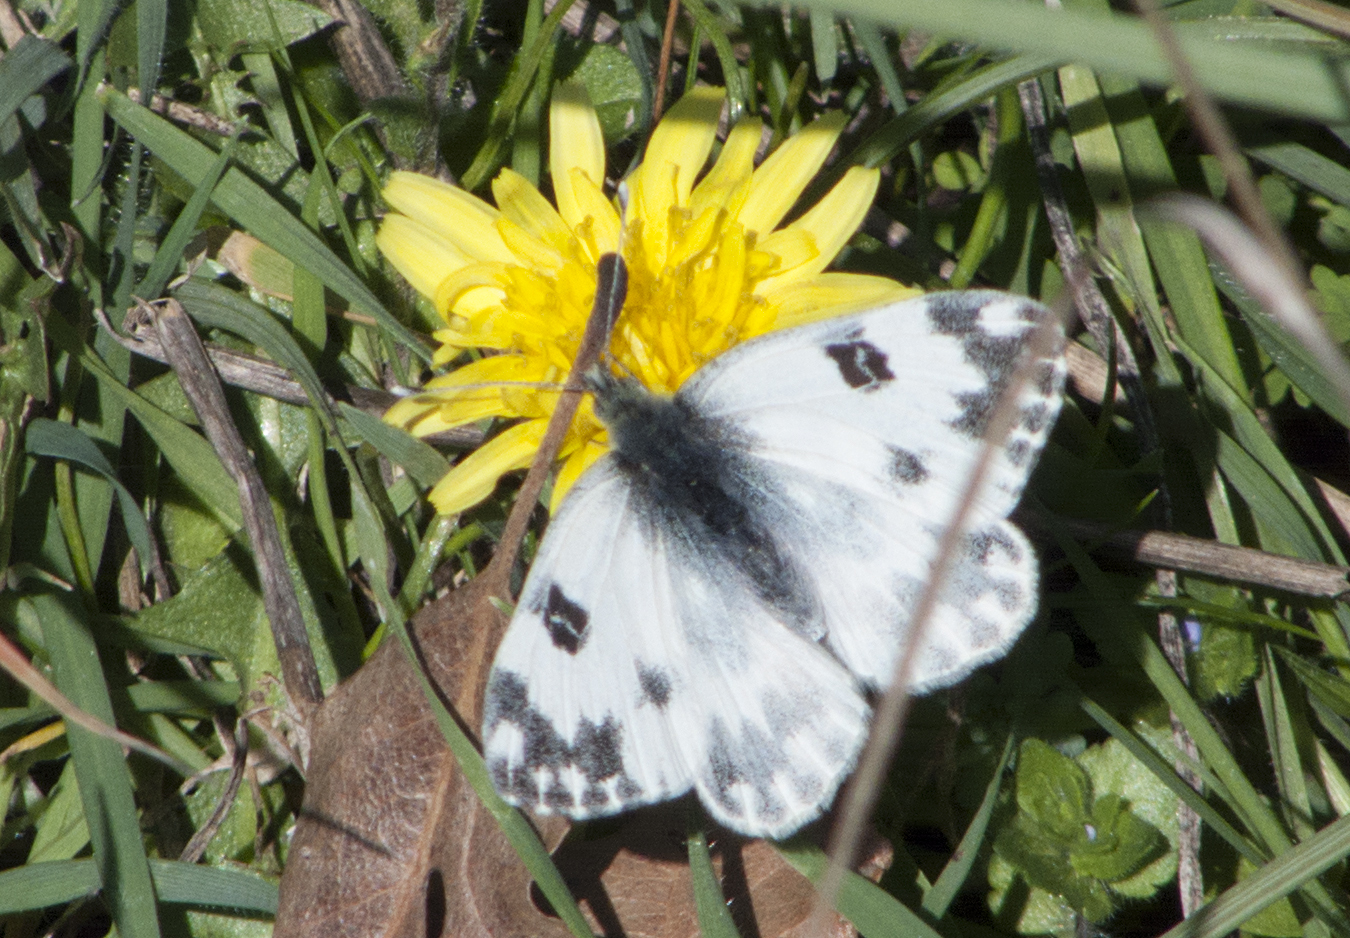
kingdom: Animalia
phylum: Arthropoda
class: Insecta
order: Lepidoptera
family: Pieridae
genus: Pontia
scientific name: Pontia edusa
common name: Eastern bath white
